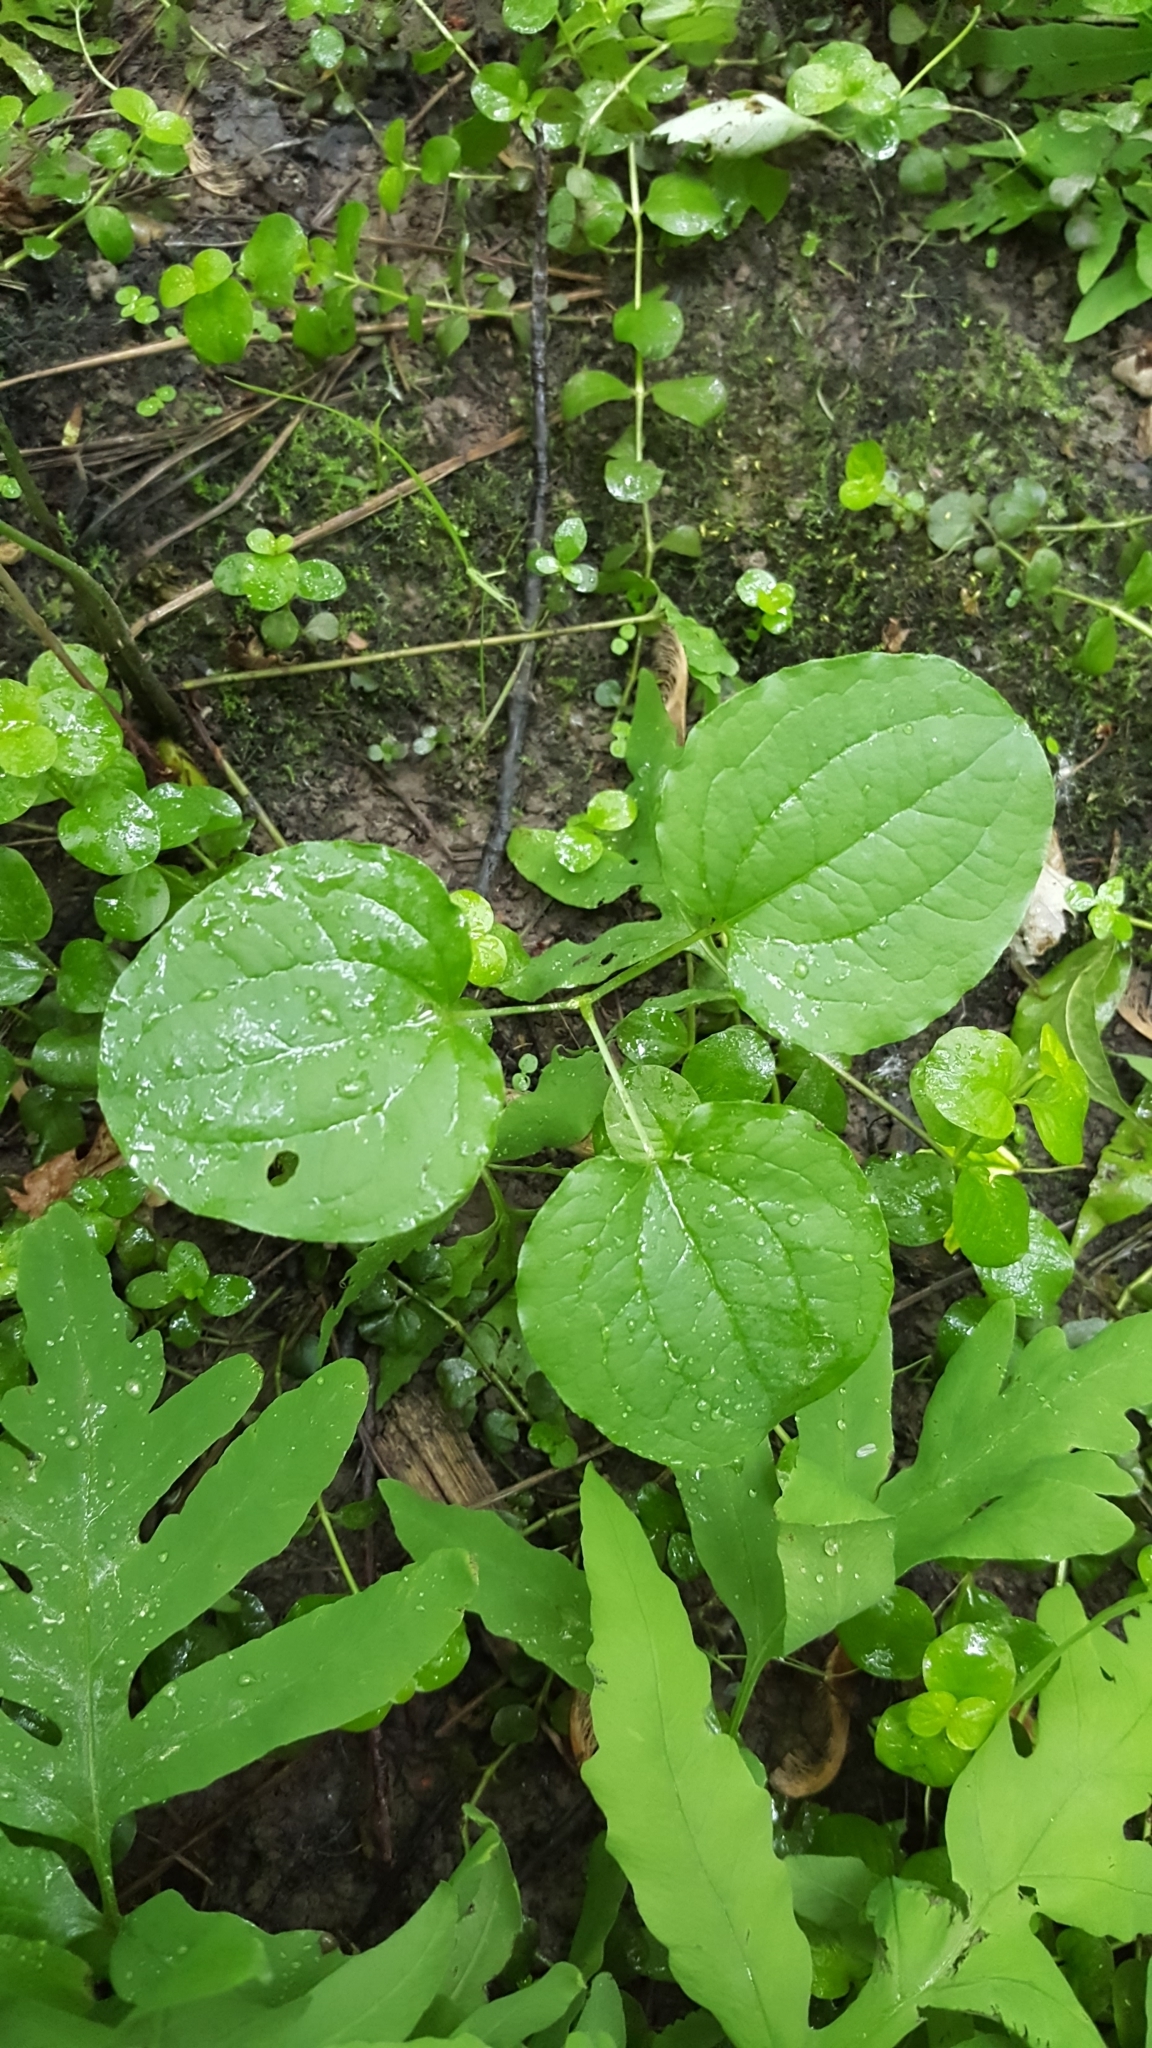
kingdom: Plantae
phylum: Tracheophyta
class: Liliopsida
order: Liliales
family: Smilacaceae
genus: Smilax
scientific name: Smilax herbacea
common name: Jacob's-ladder
